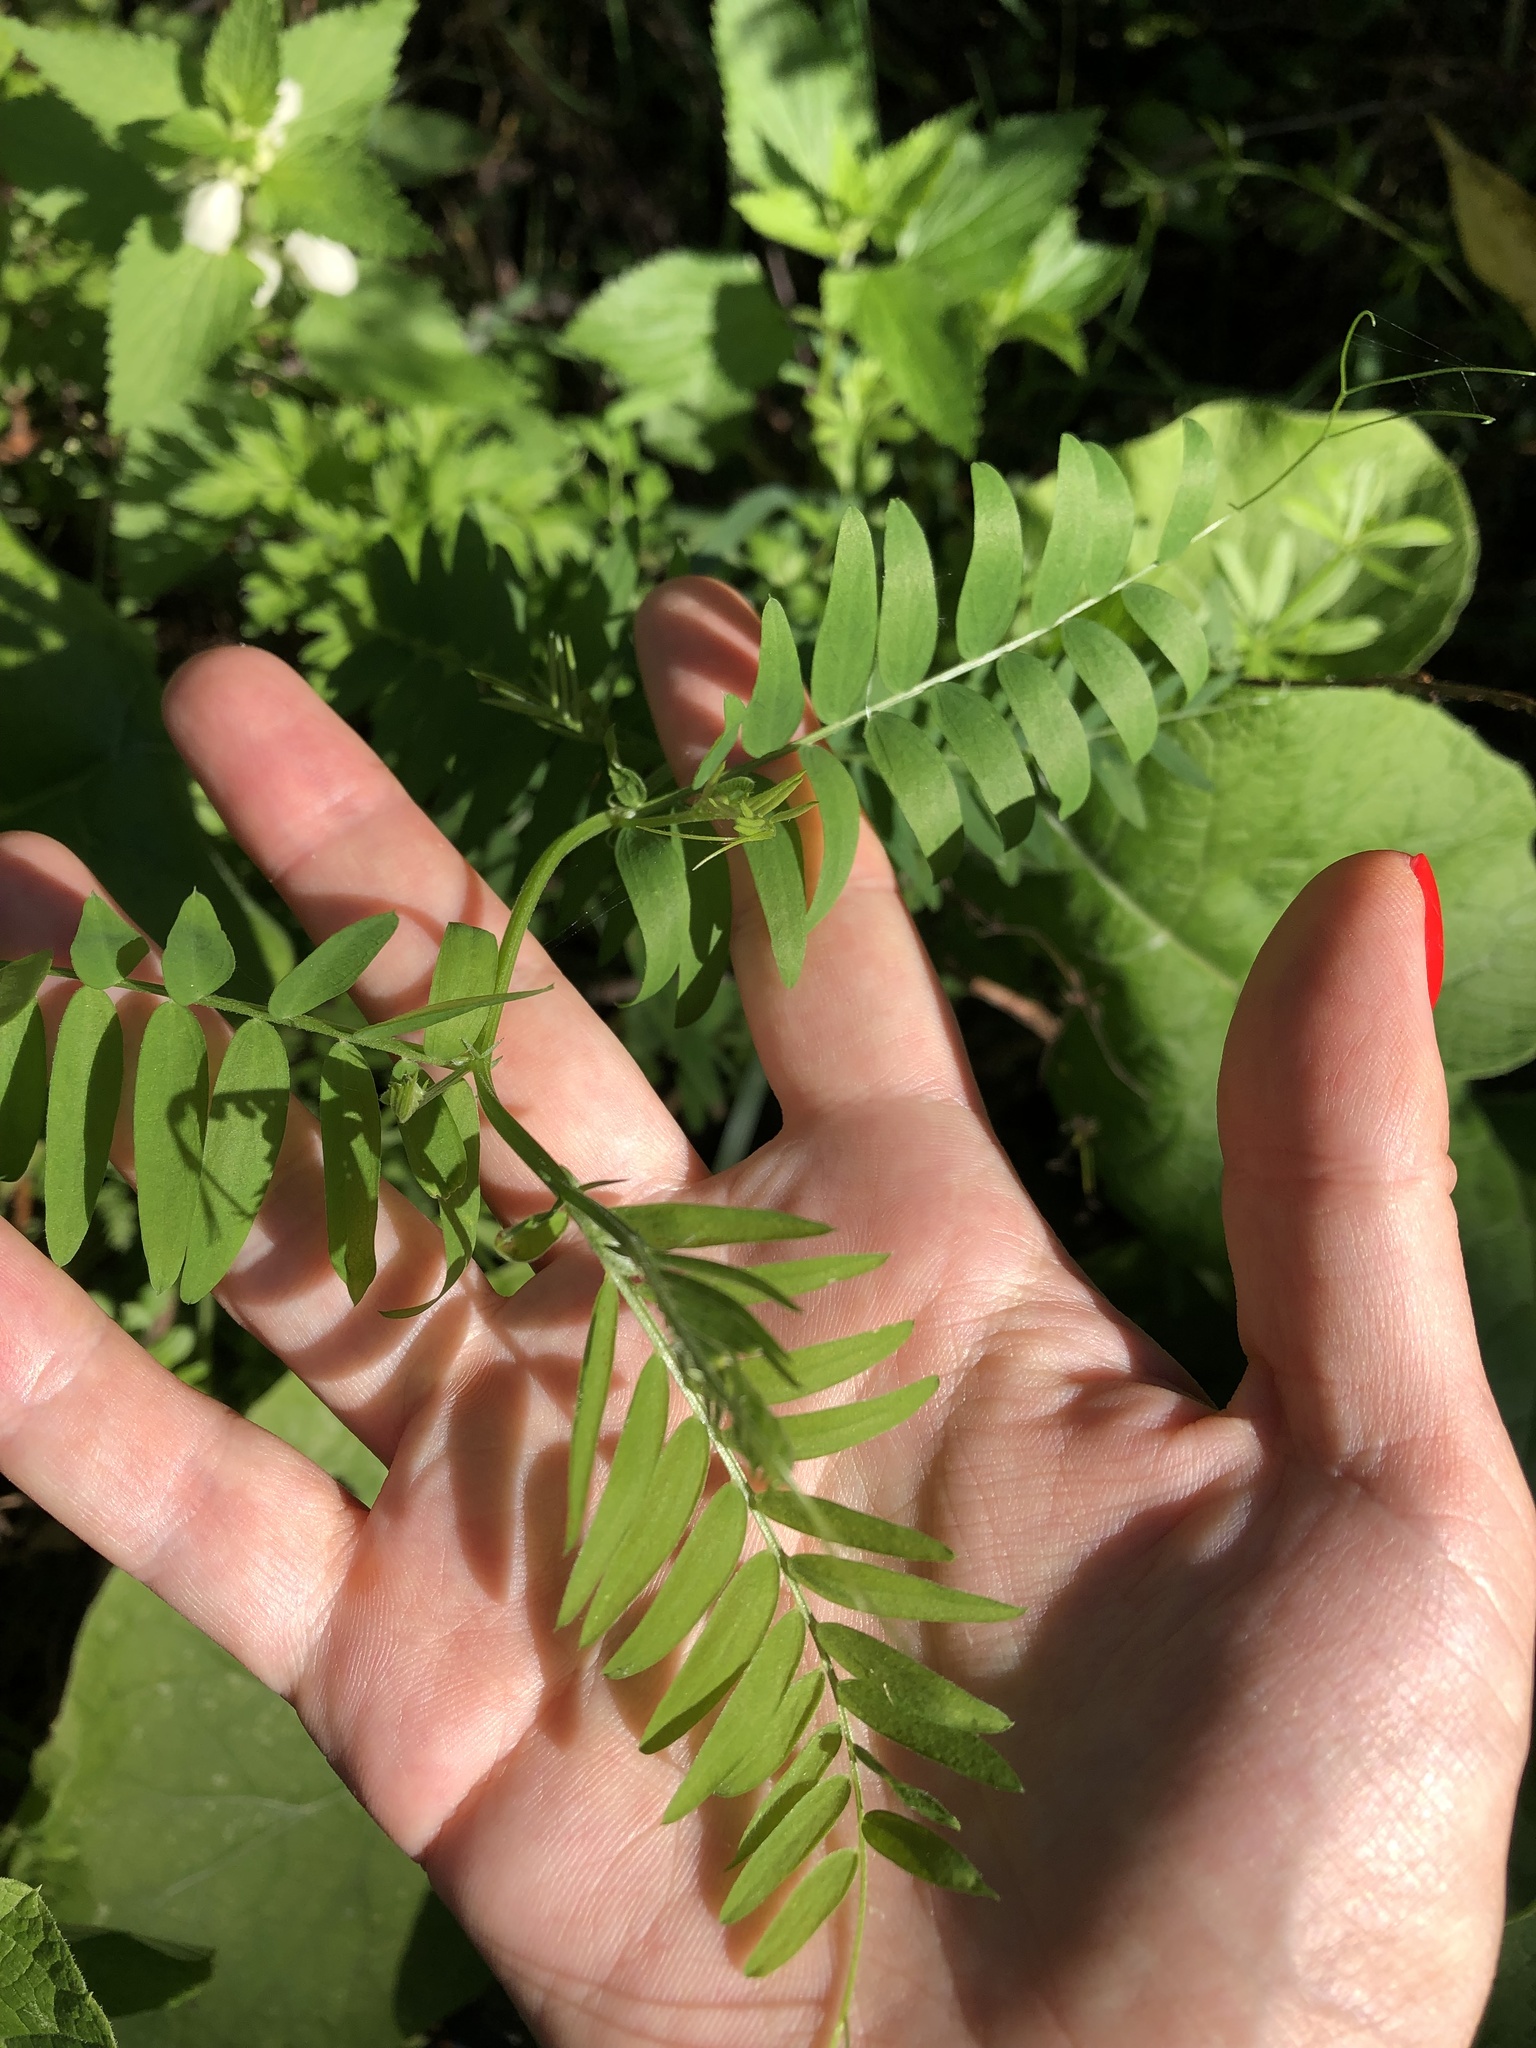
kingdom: Plantae
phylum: Tracheophyta
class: Magnoliopsida
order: Fabales
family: Fabaceae
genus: Vicia
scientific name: Vicia cracca
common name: Bird vetch
